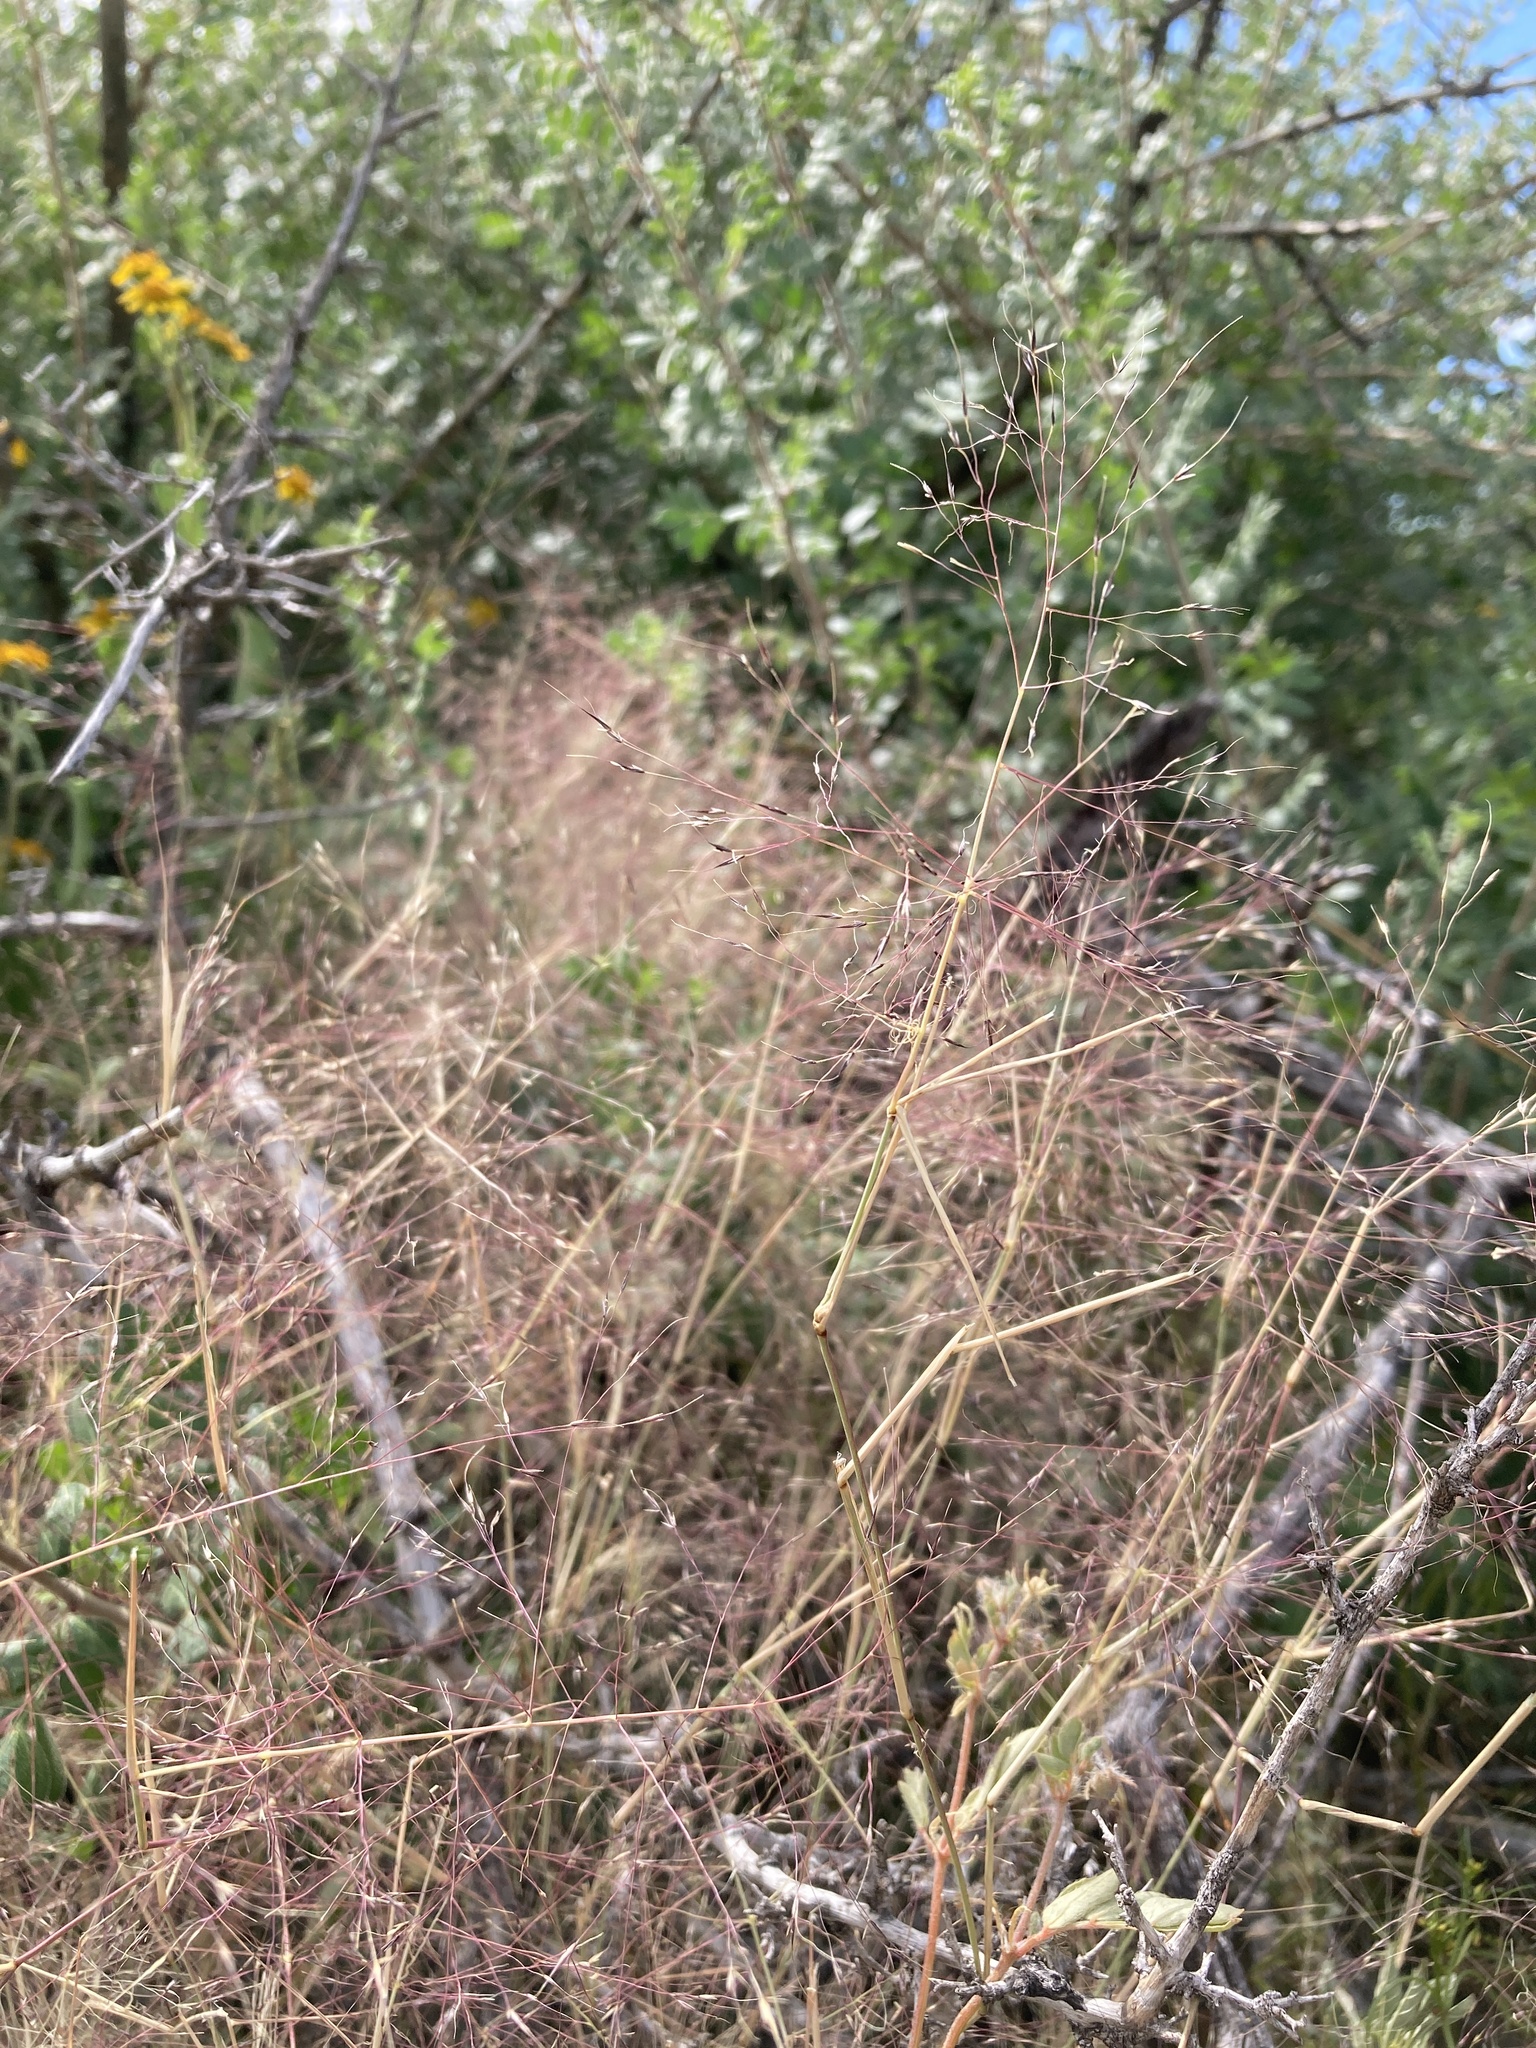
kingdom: Plantae
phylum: Tracheophyta
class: Liliopsida
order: Poales
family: Poaceae
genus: Muhlenbergia
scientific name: Muhlenbergia porteri
